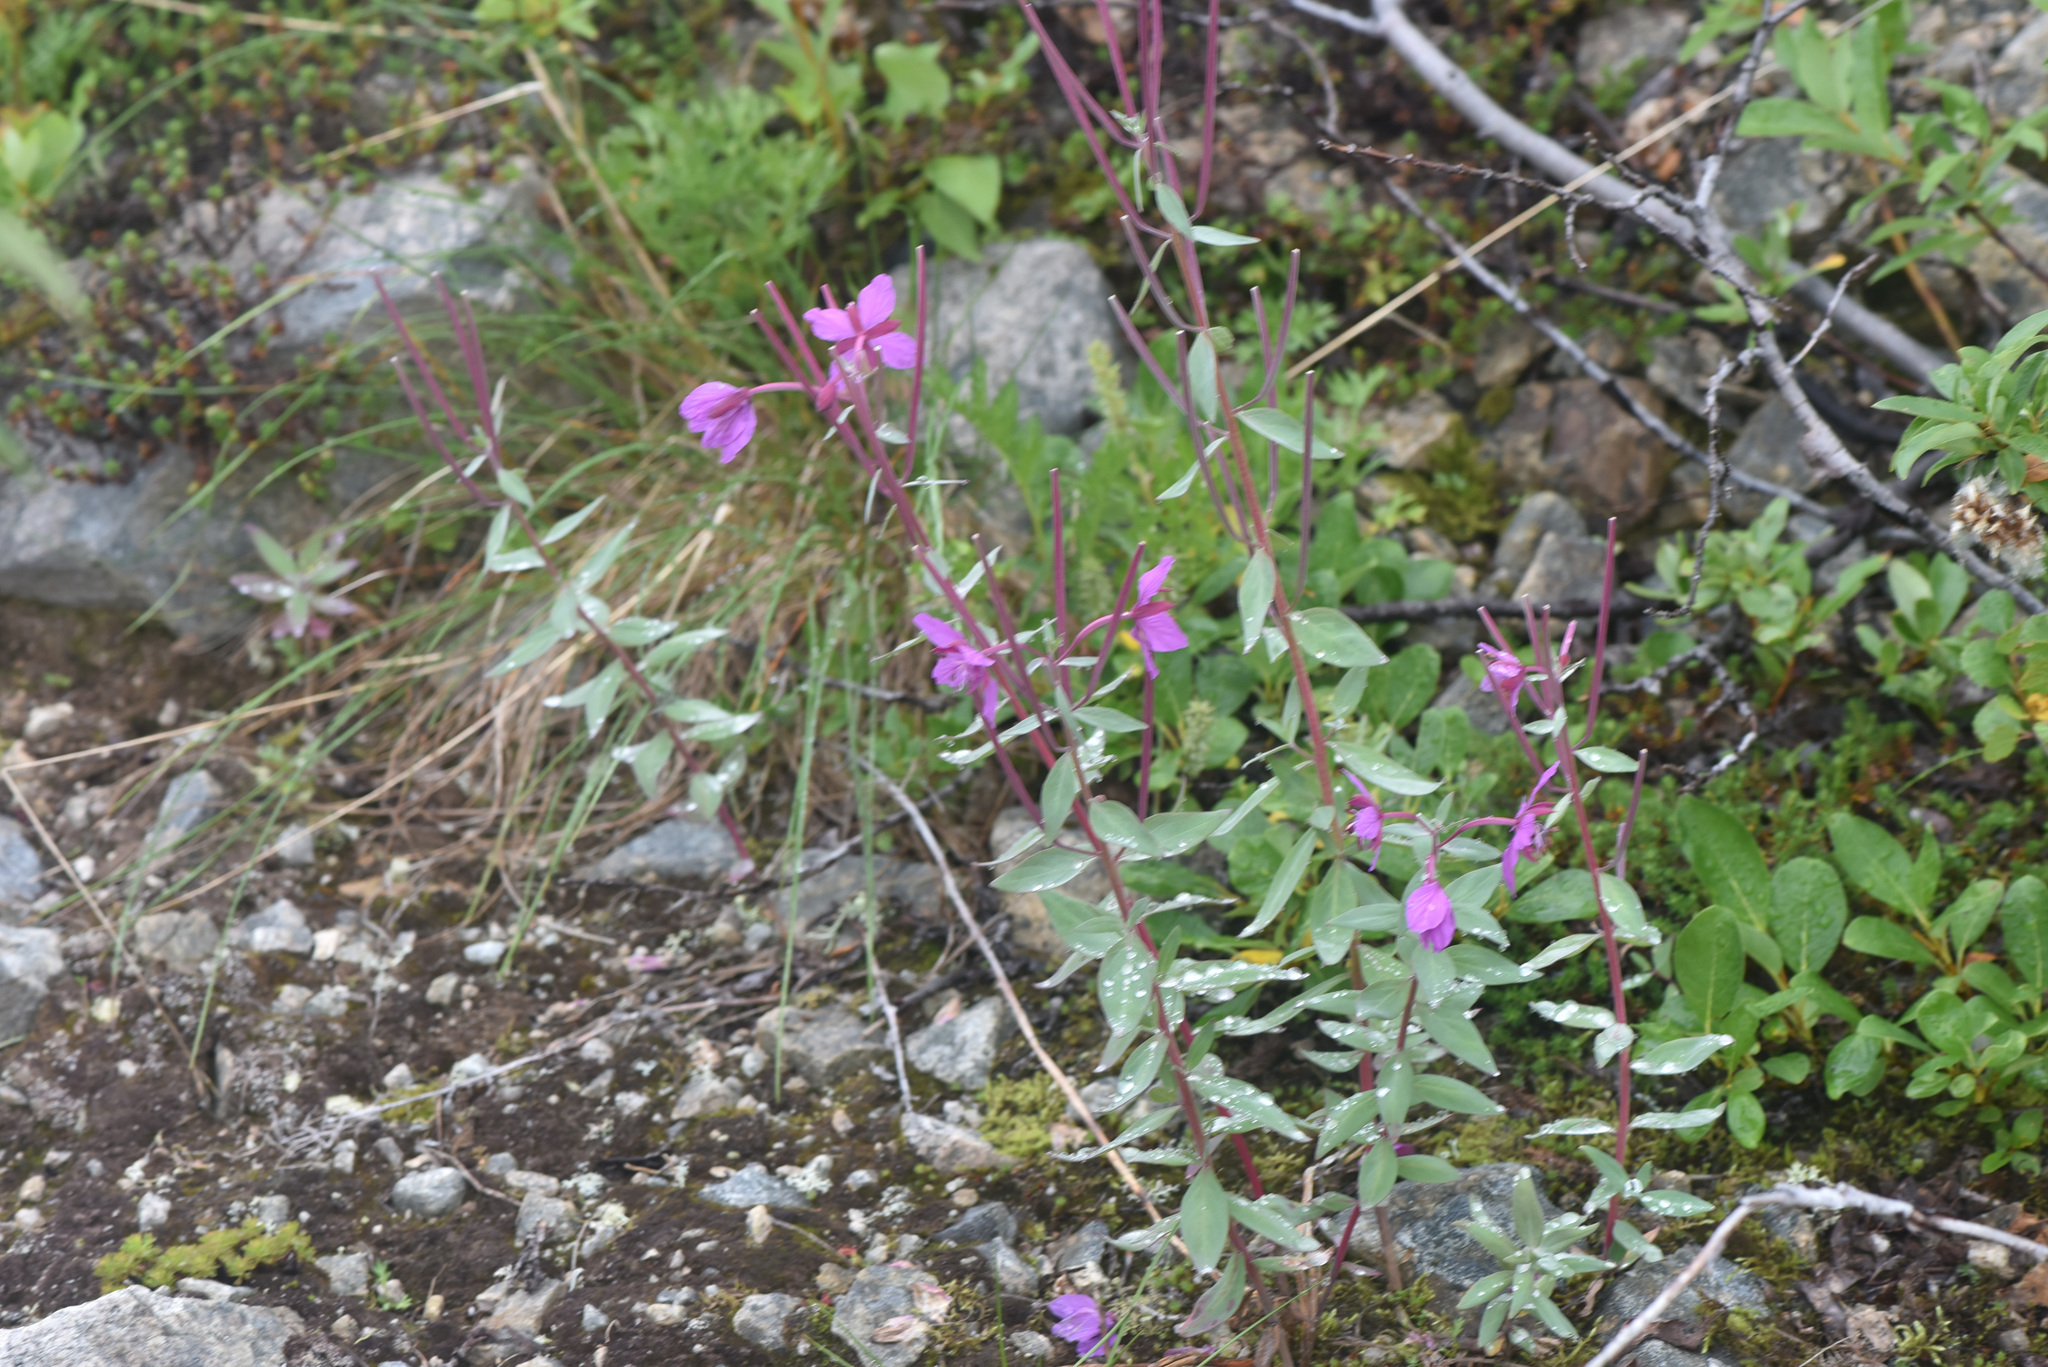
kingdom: Plantae
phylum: Tracheophyta
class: Magnoliopsida
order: Myrtales
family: Onagraceae
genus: Chamaenerion
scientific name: Chamaenerion latifolium
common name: Dwarf fireweed
